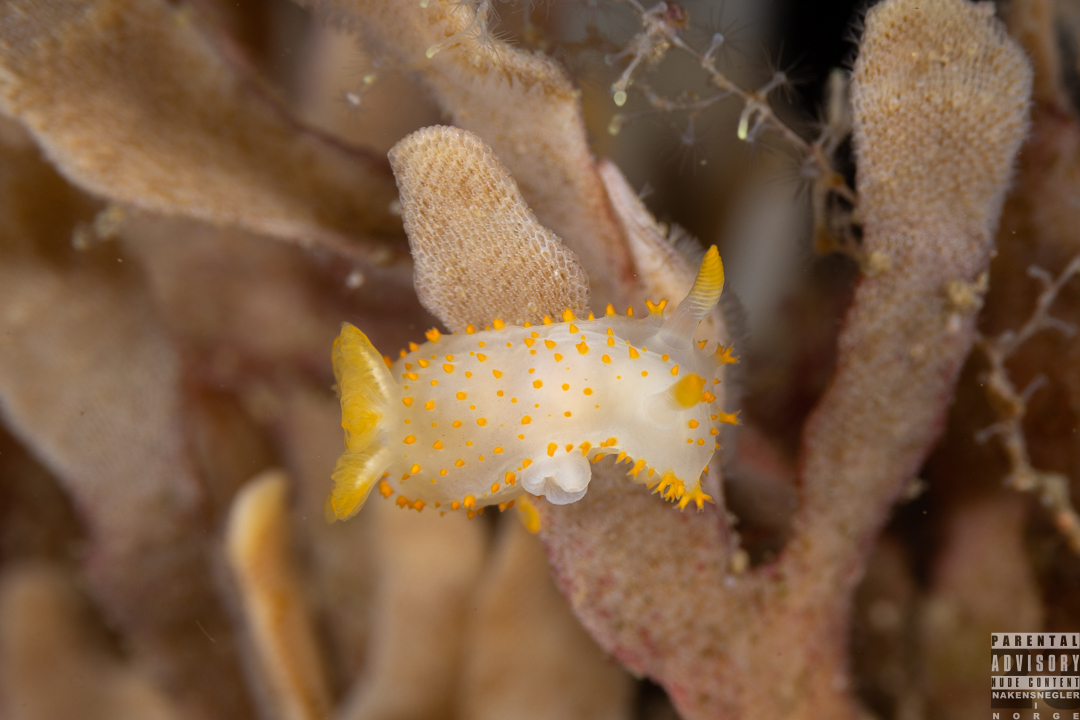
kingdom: Animalia
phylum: Mollusca
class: Gastropoda
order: Nudibranchia
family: Polyceridae
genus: Crimora
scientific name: Crimora papillata
